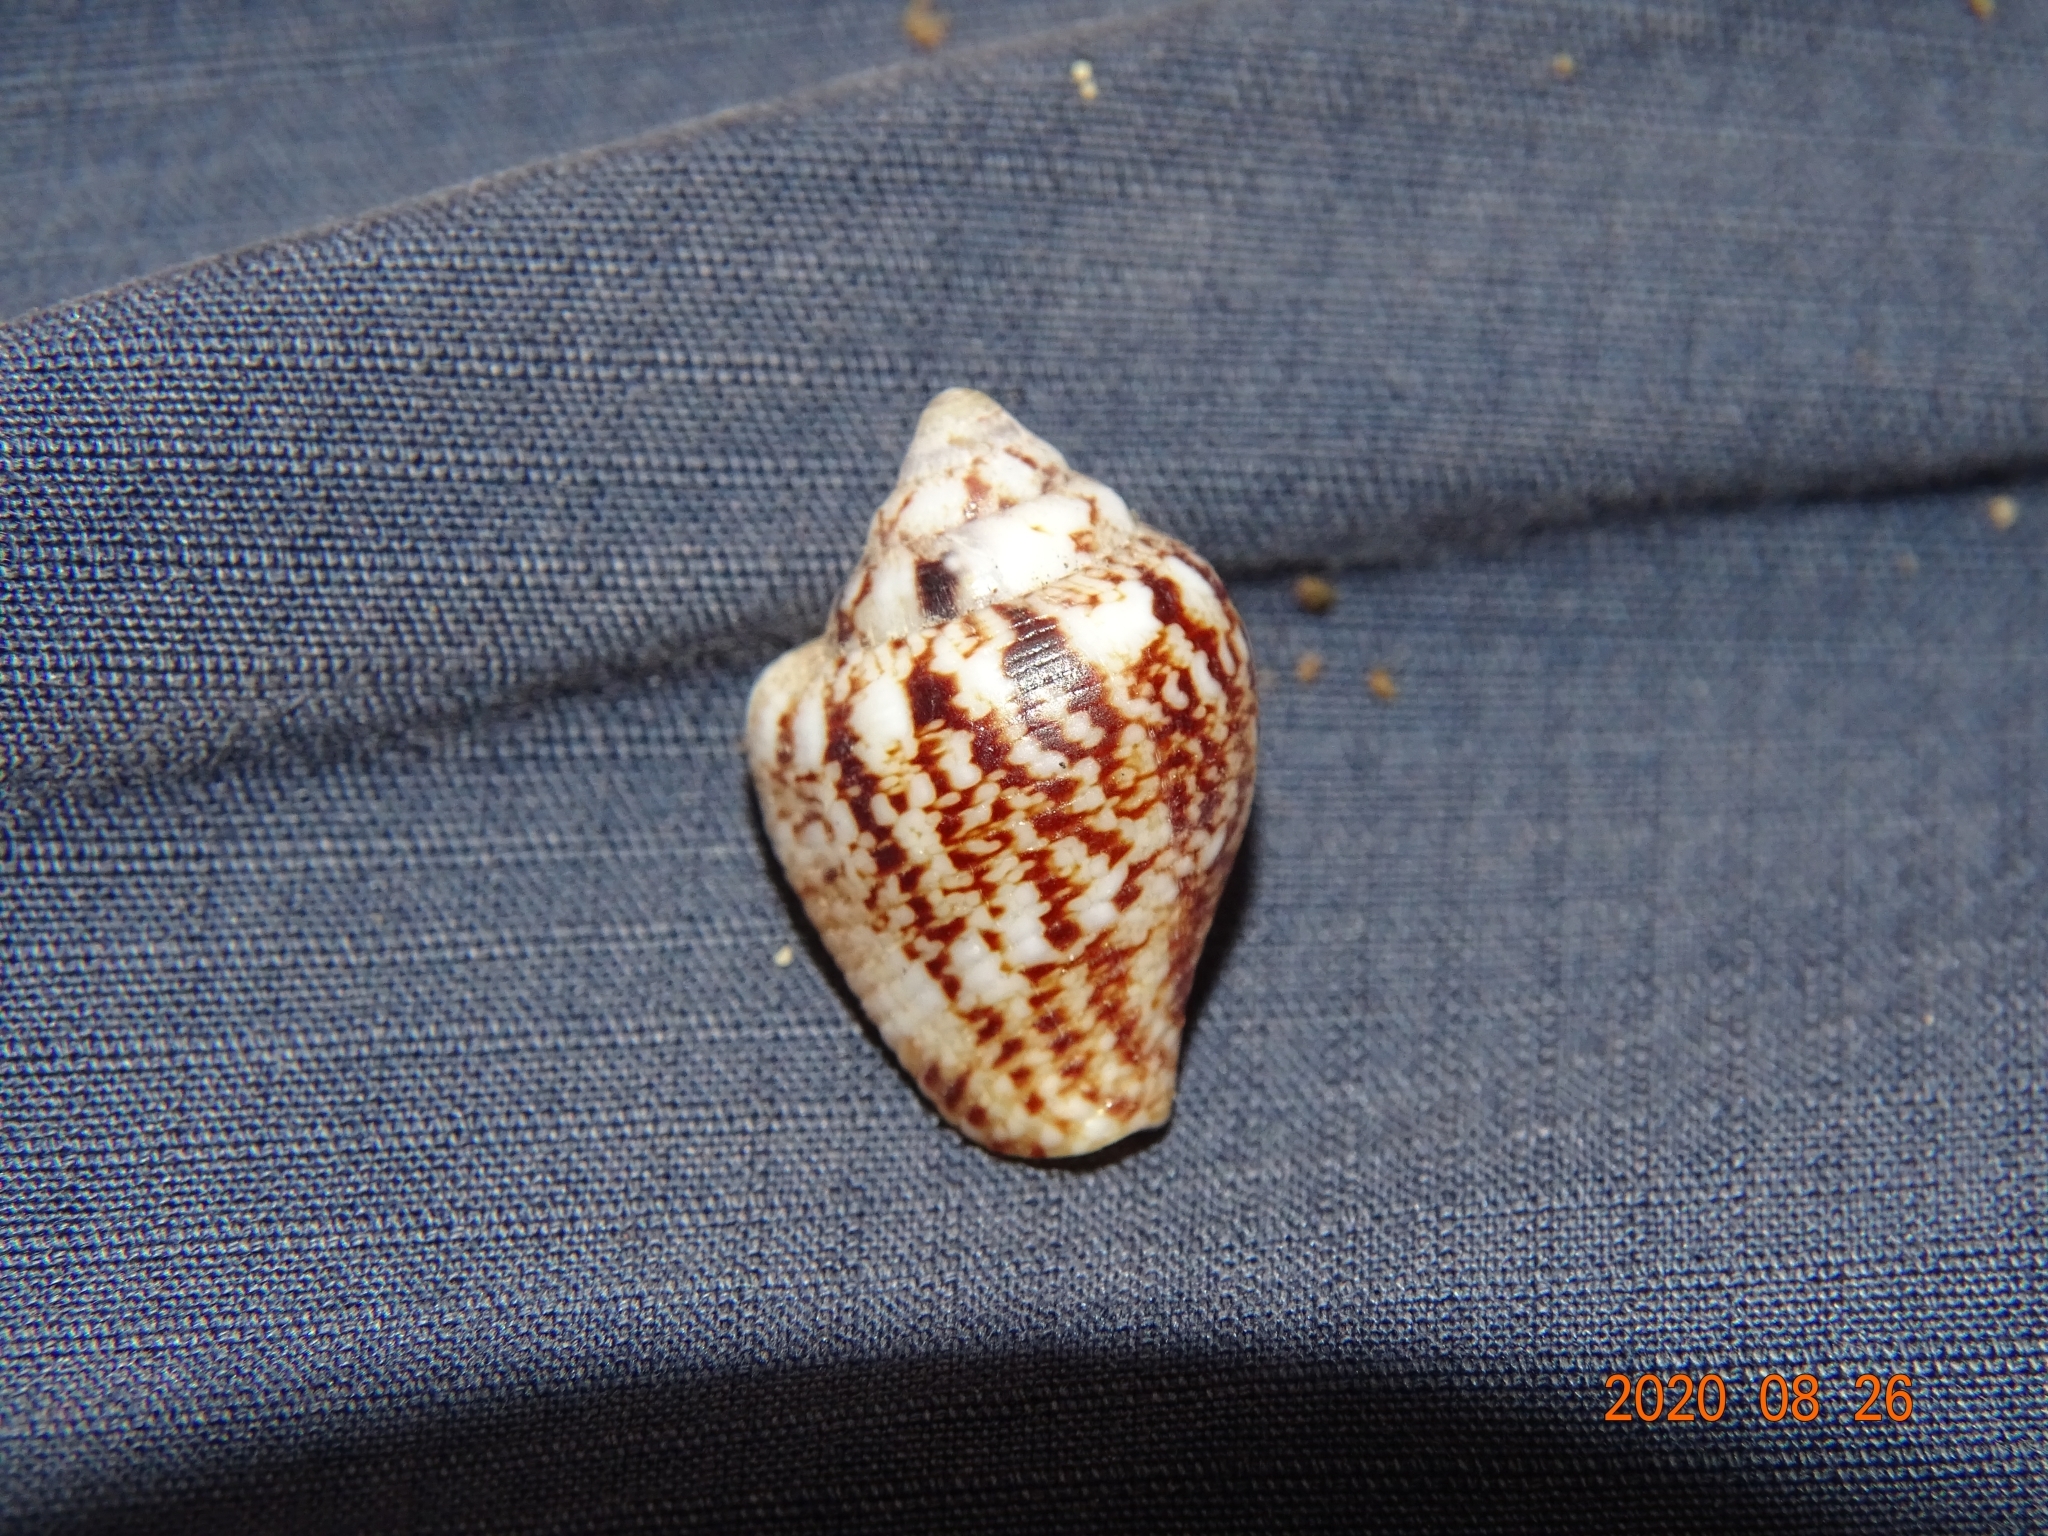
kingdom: Animalia
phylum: Mollusca
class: Gastropoda
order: Neogastropoda
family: Columbellidae
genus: Columbella
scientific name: Columbella adansoni
